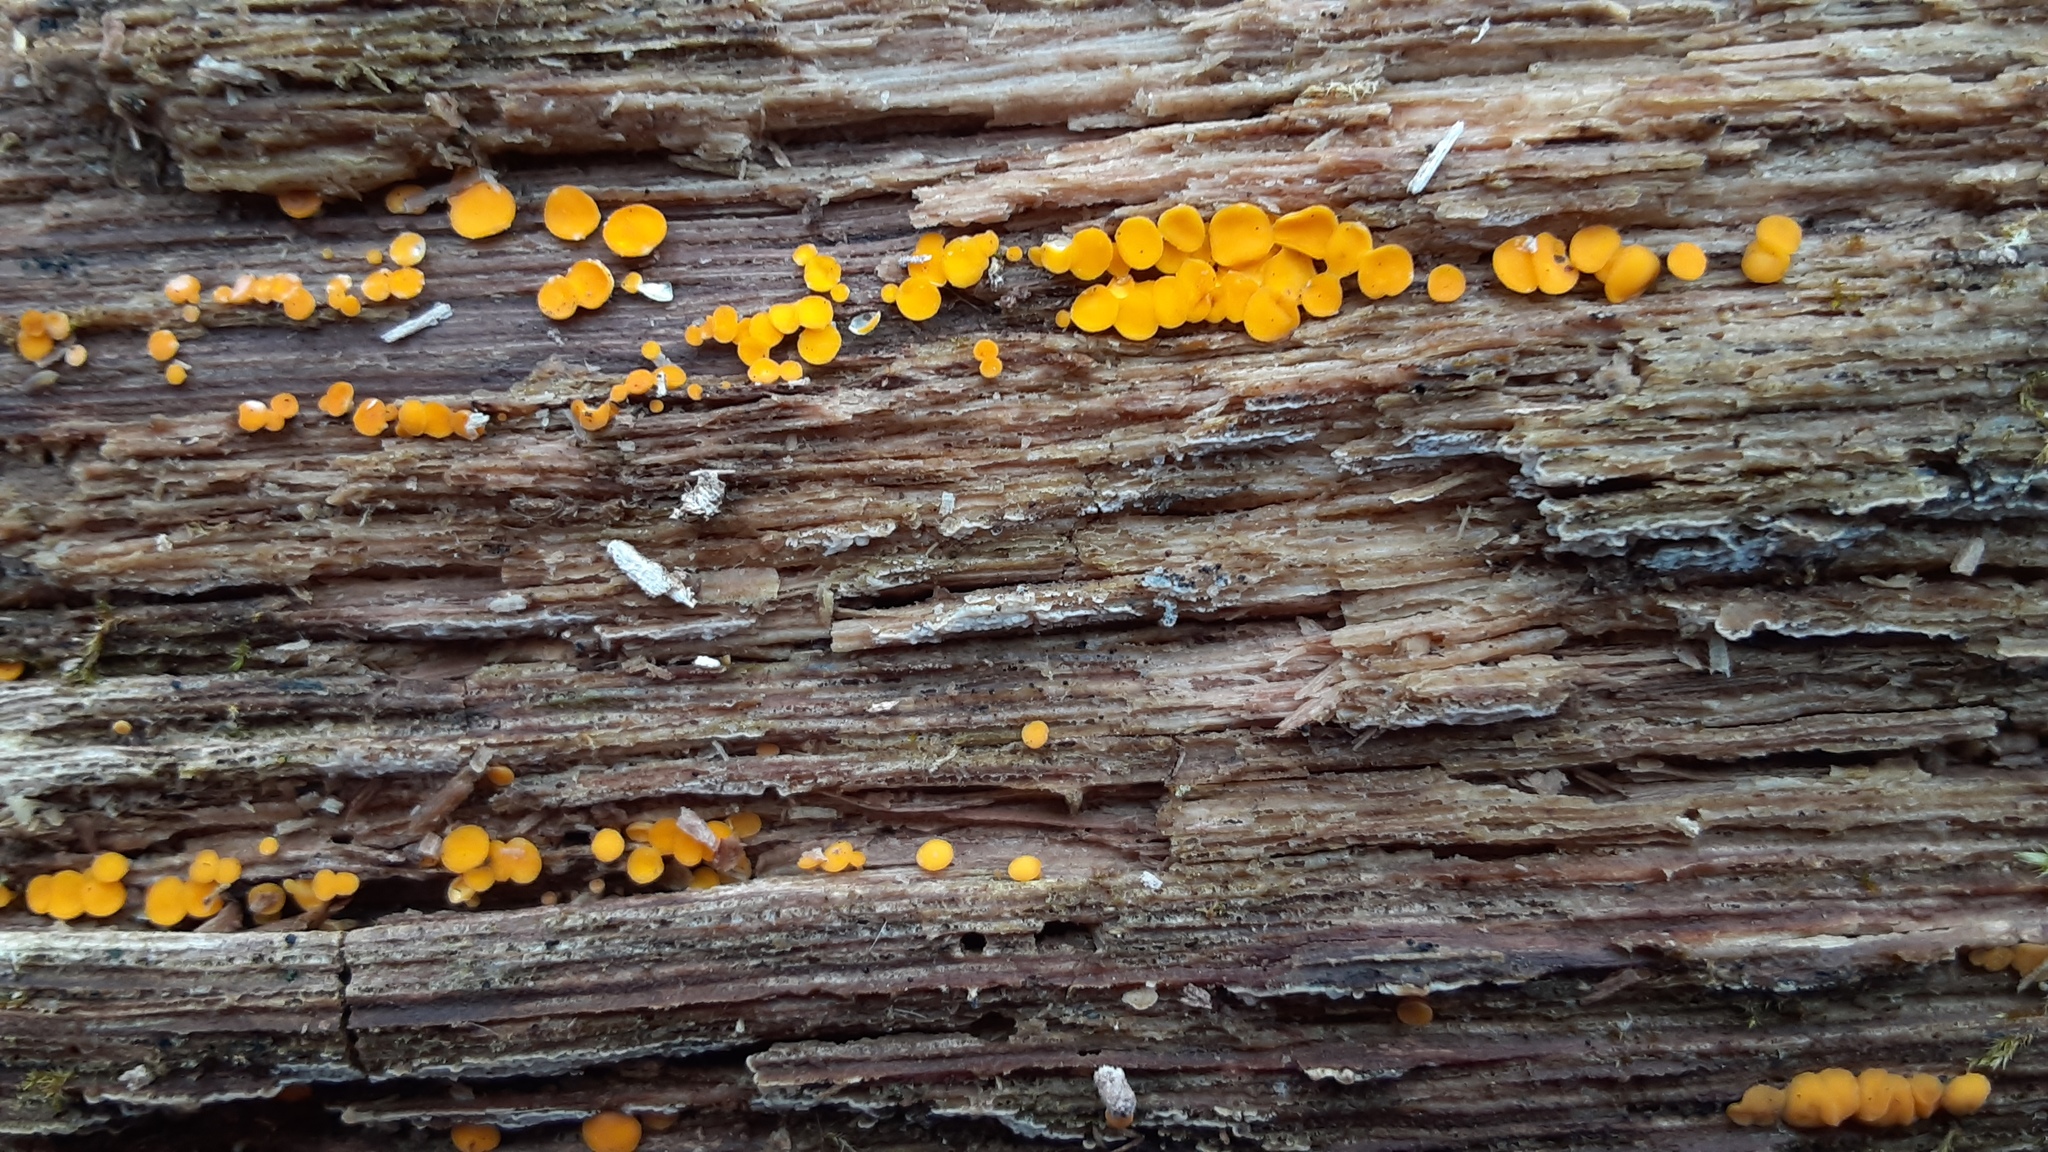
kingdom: Fungi
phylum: Ascomycota
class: Leotiomycetes
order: Helotiales
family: Pezizellaceae
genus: Calycina
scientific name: Calycina citrina
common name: Yellow fairy cups
